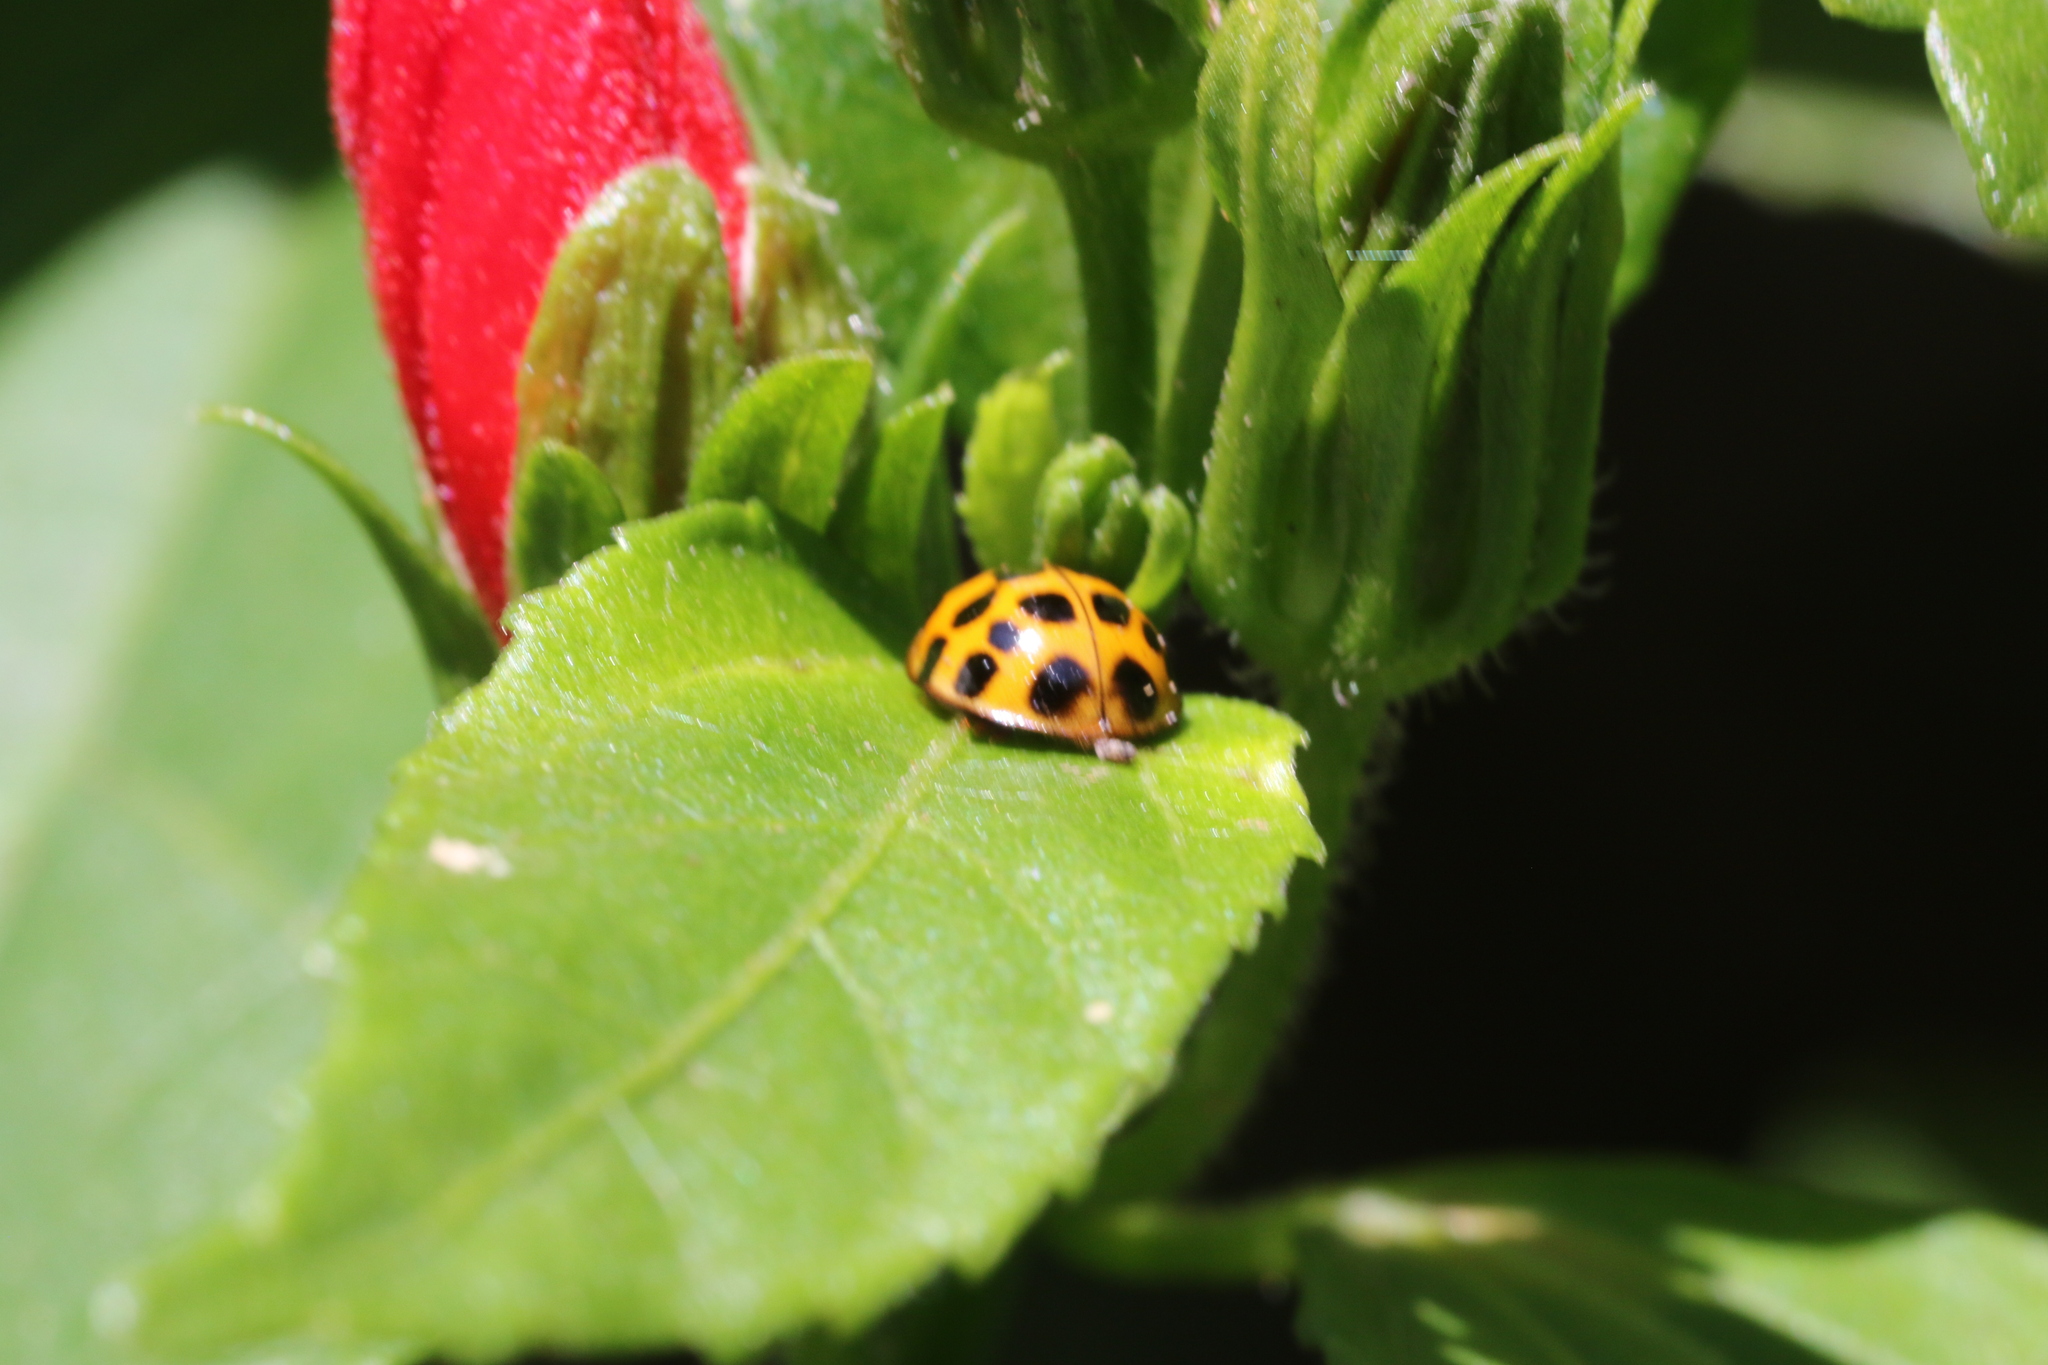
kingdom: Animalia
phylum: Arthropoda
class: Insecta
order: Coleoptera
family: Coccinellidae
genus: Harmonia
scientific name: Harmonia axyridis
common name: Harlequin ladybird
